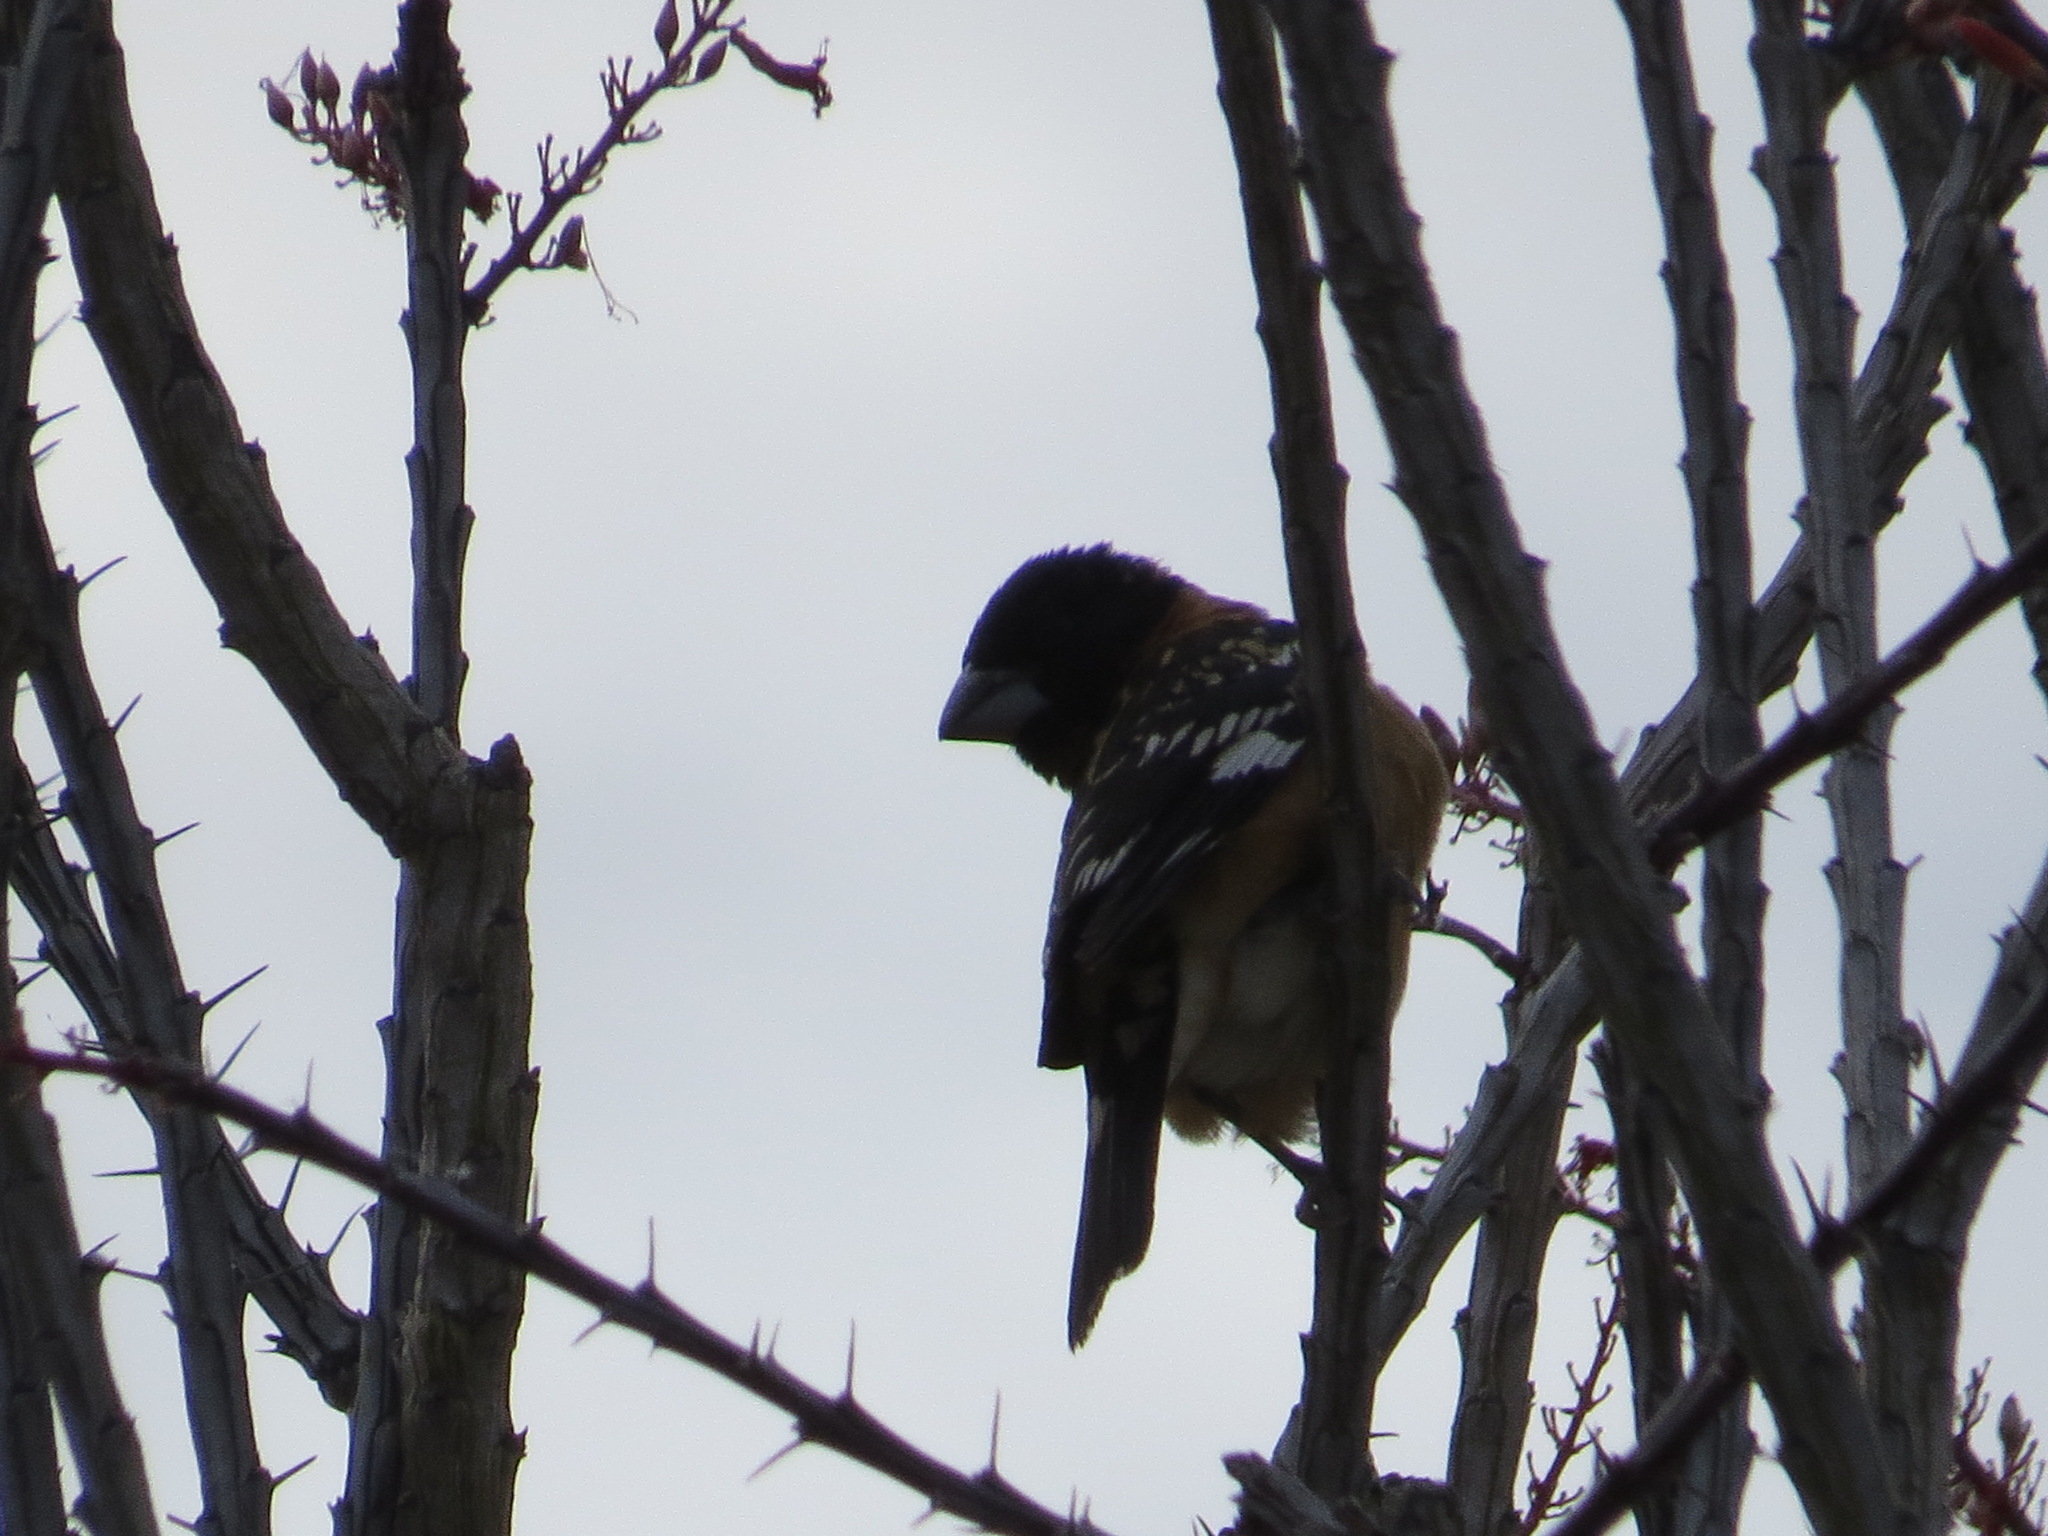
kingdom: Animalia
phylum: Chordata
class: Aves
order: Passeriformes
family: Cardinalidae
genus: Pheucticus
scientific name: Pheucticus melanocephalus
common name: Black-headed grosbeak
